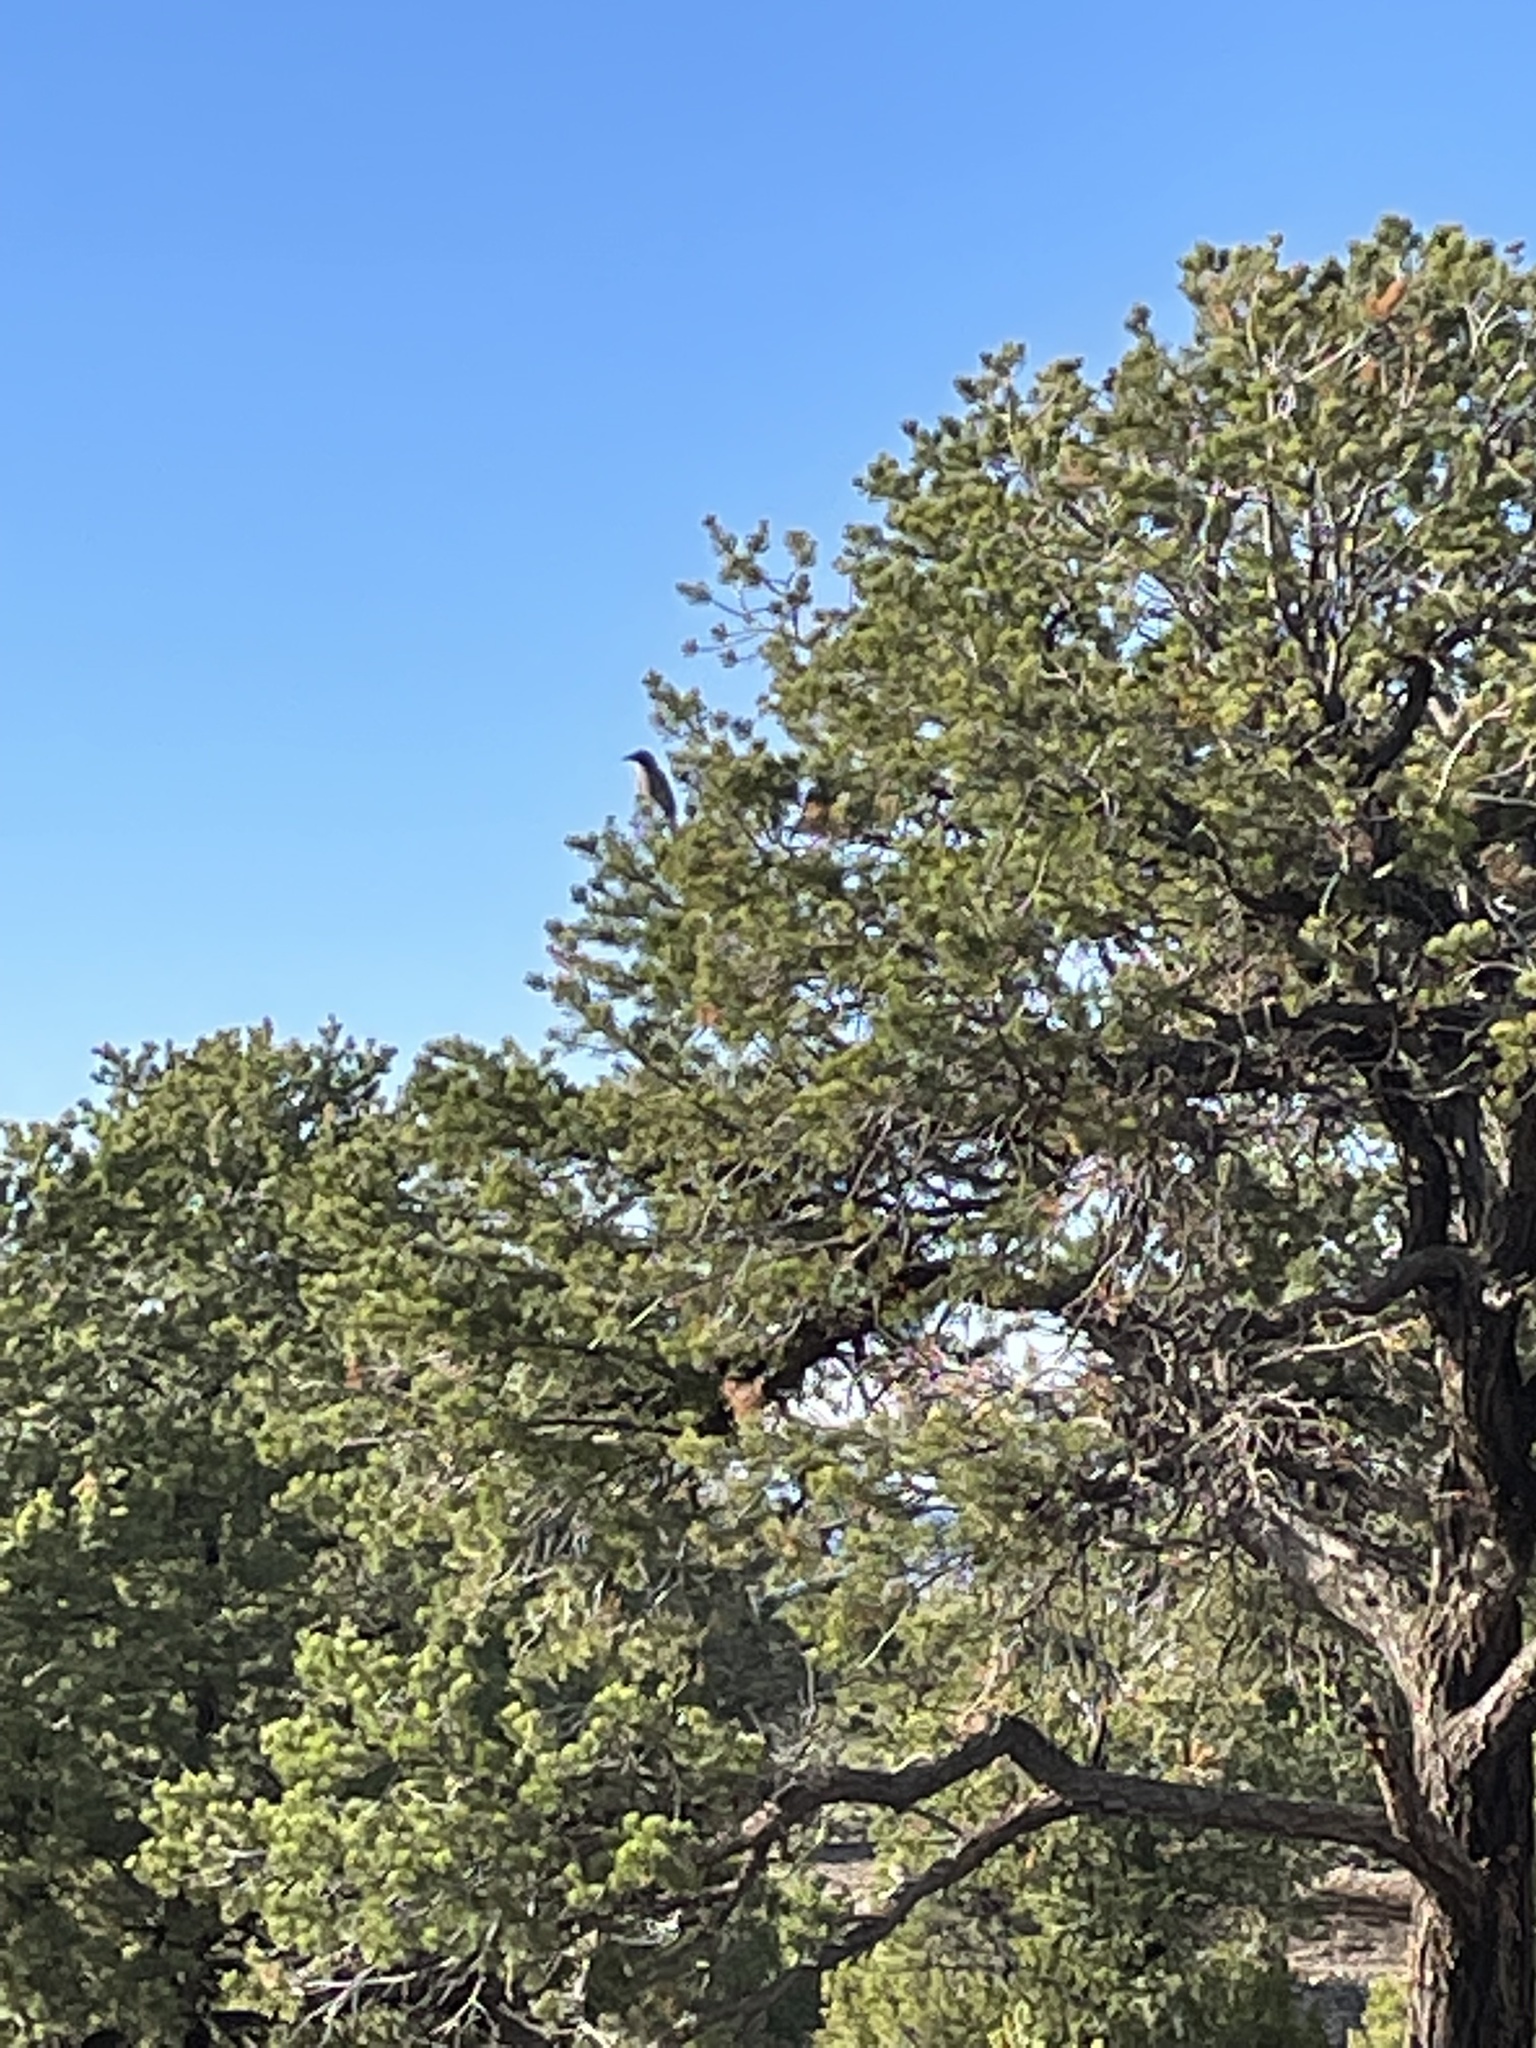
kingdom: Animalia
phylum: Chordata
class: Aves
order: Passeriformes
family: Corvidae
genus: Aphelocoma
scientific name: Aphelocoma woodhouseii
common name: Woodhouse's scrub-jay
